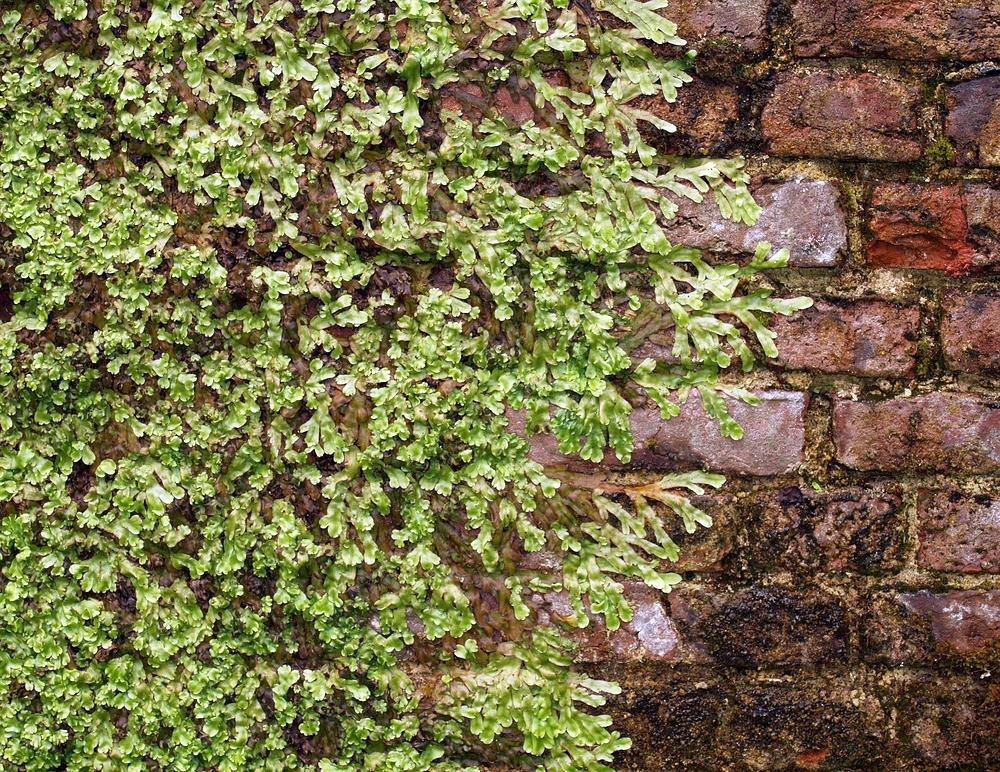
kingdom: Plantae
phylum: Marchantiophyta
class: Marchantiopsida
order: Marchantiales
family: Conocephalaceae
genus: Conocephalum
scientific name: Conocephalum conicum
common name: Great scented liverwort
